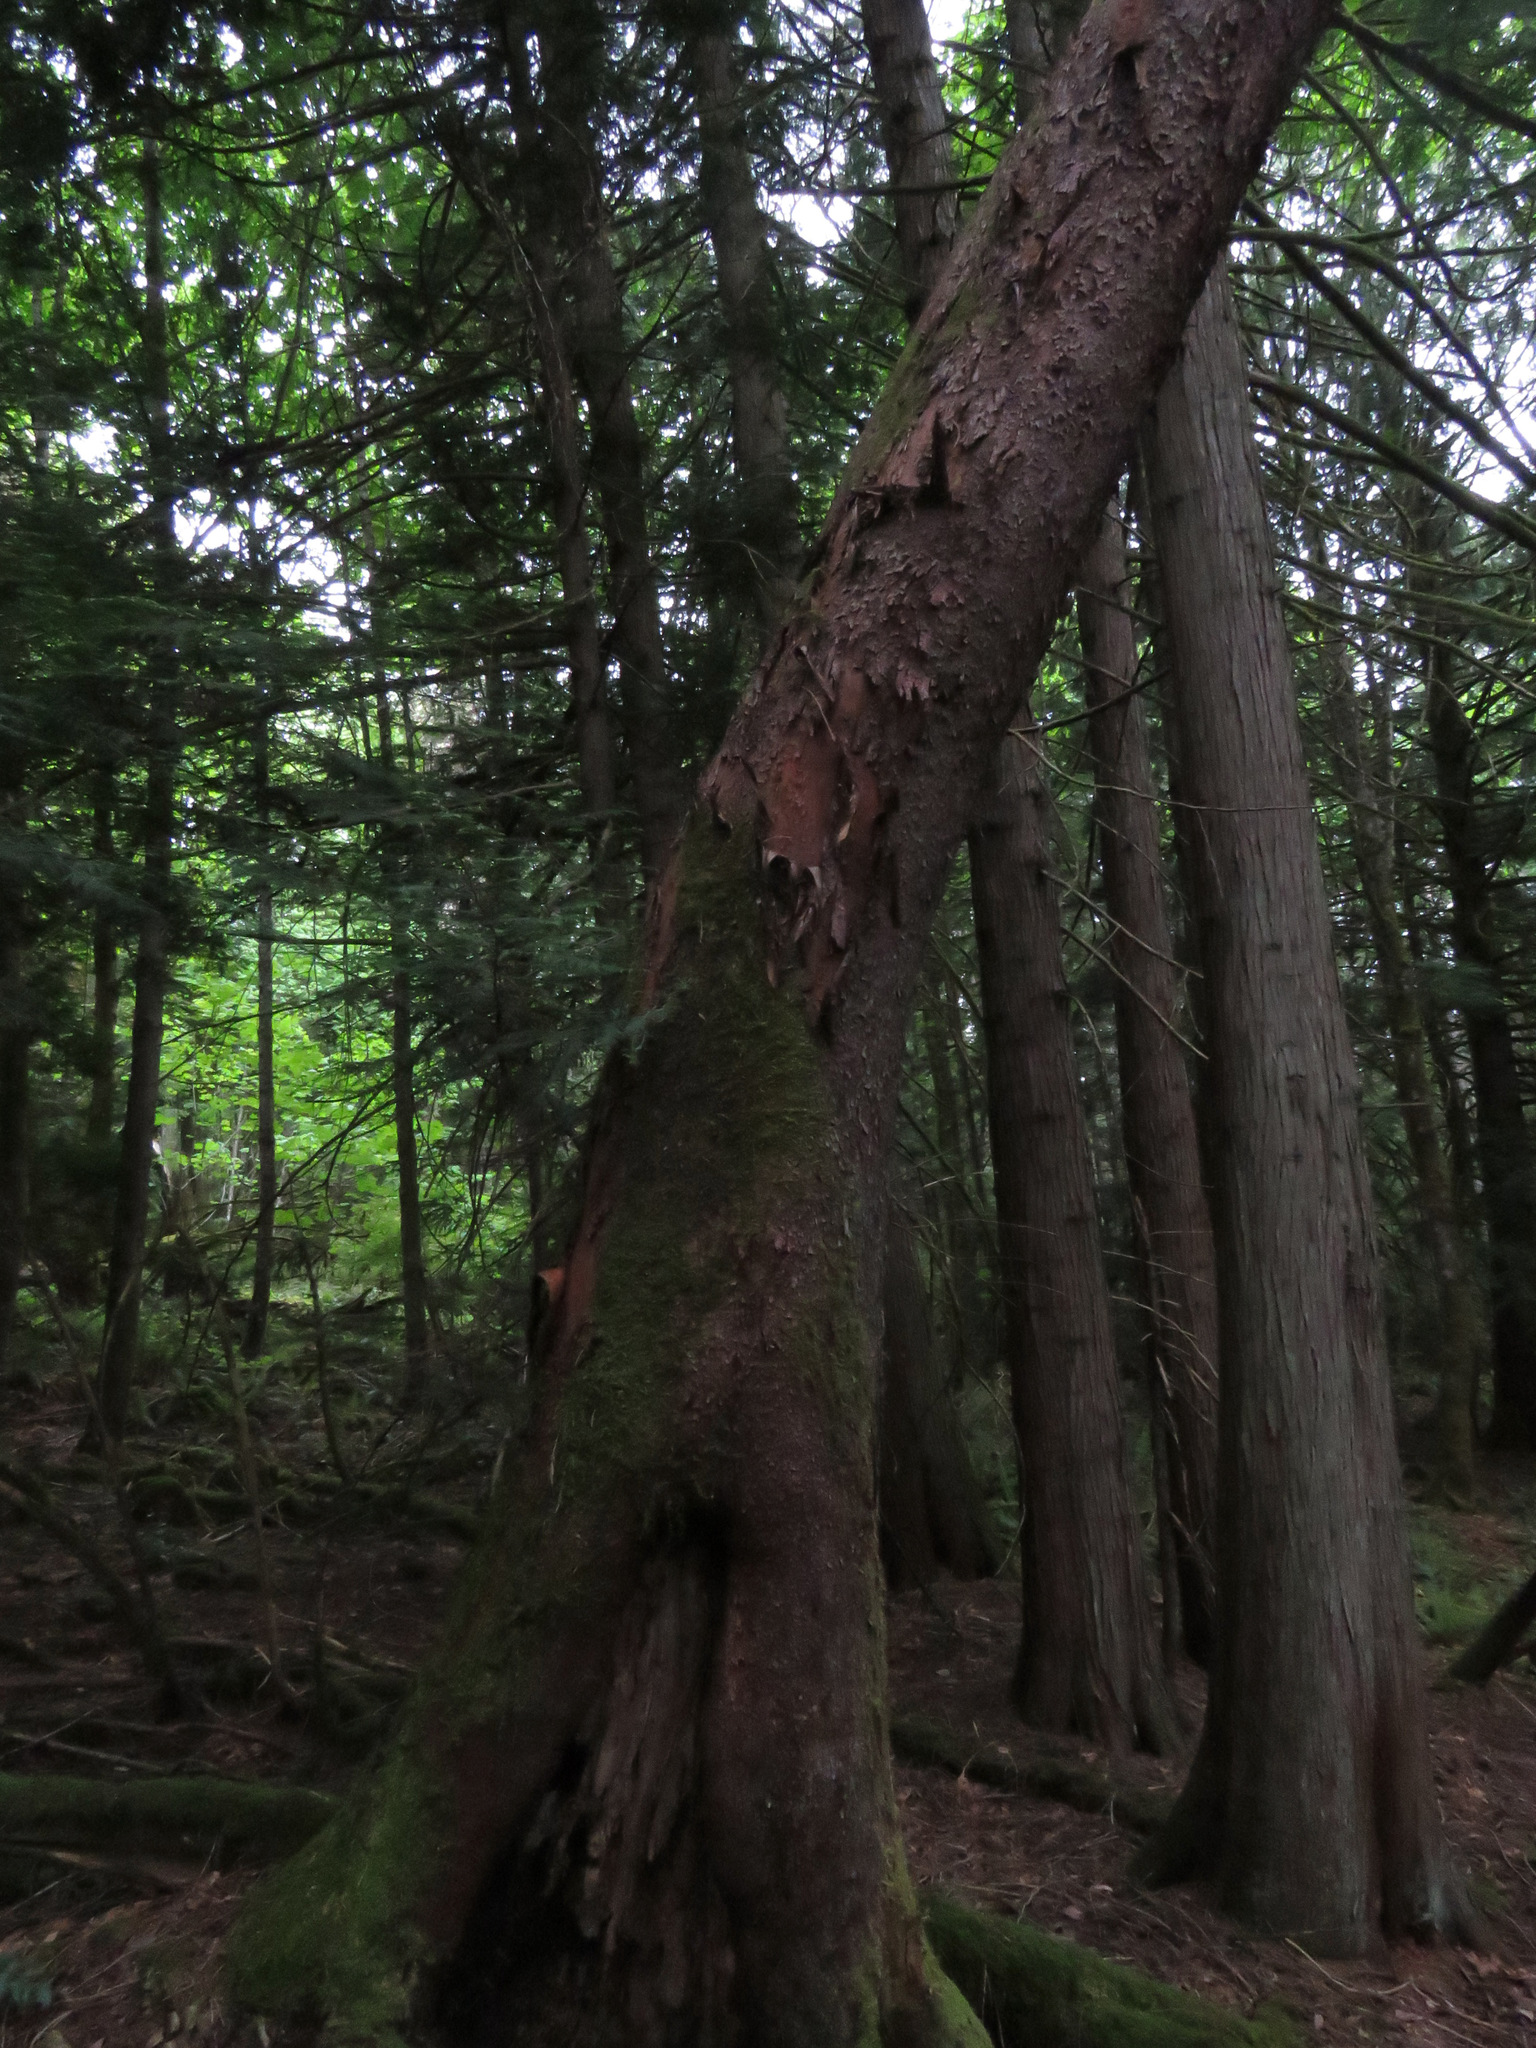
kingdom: Plantae
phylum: Tracheophyta
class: Magnoliopsida
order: Ericales
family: Ericaceae
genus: Arbutus
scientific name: Arbutus menziesii
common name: Pacific madrone
